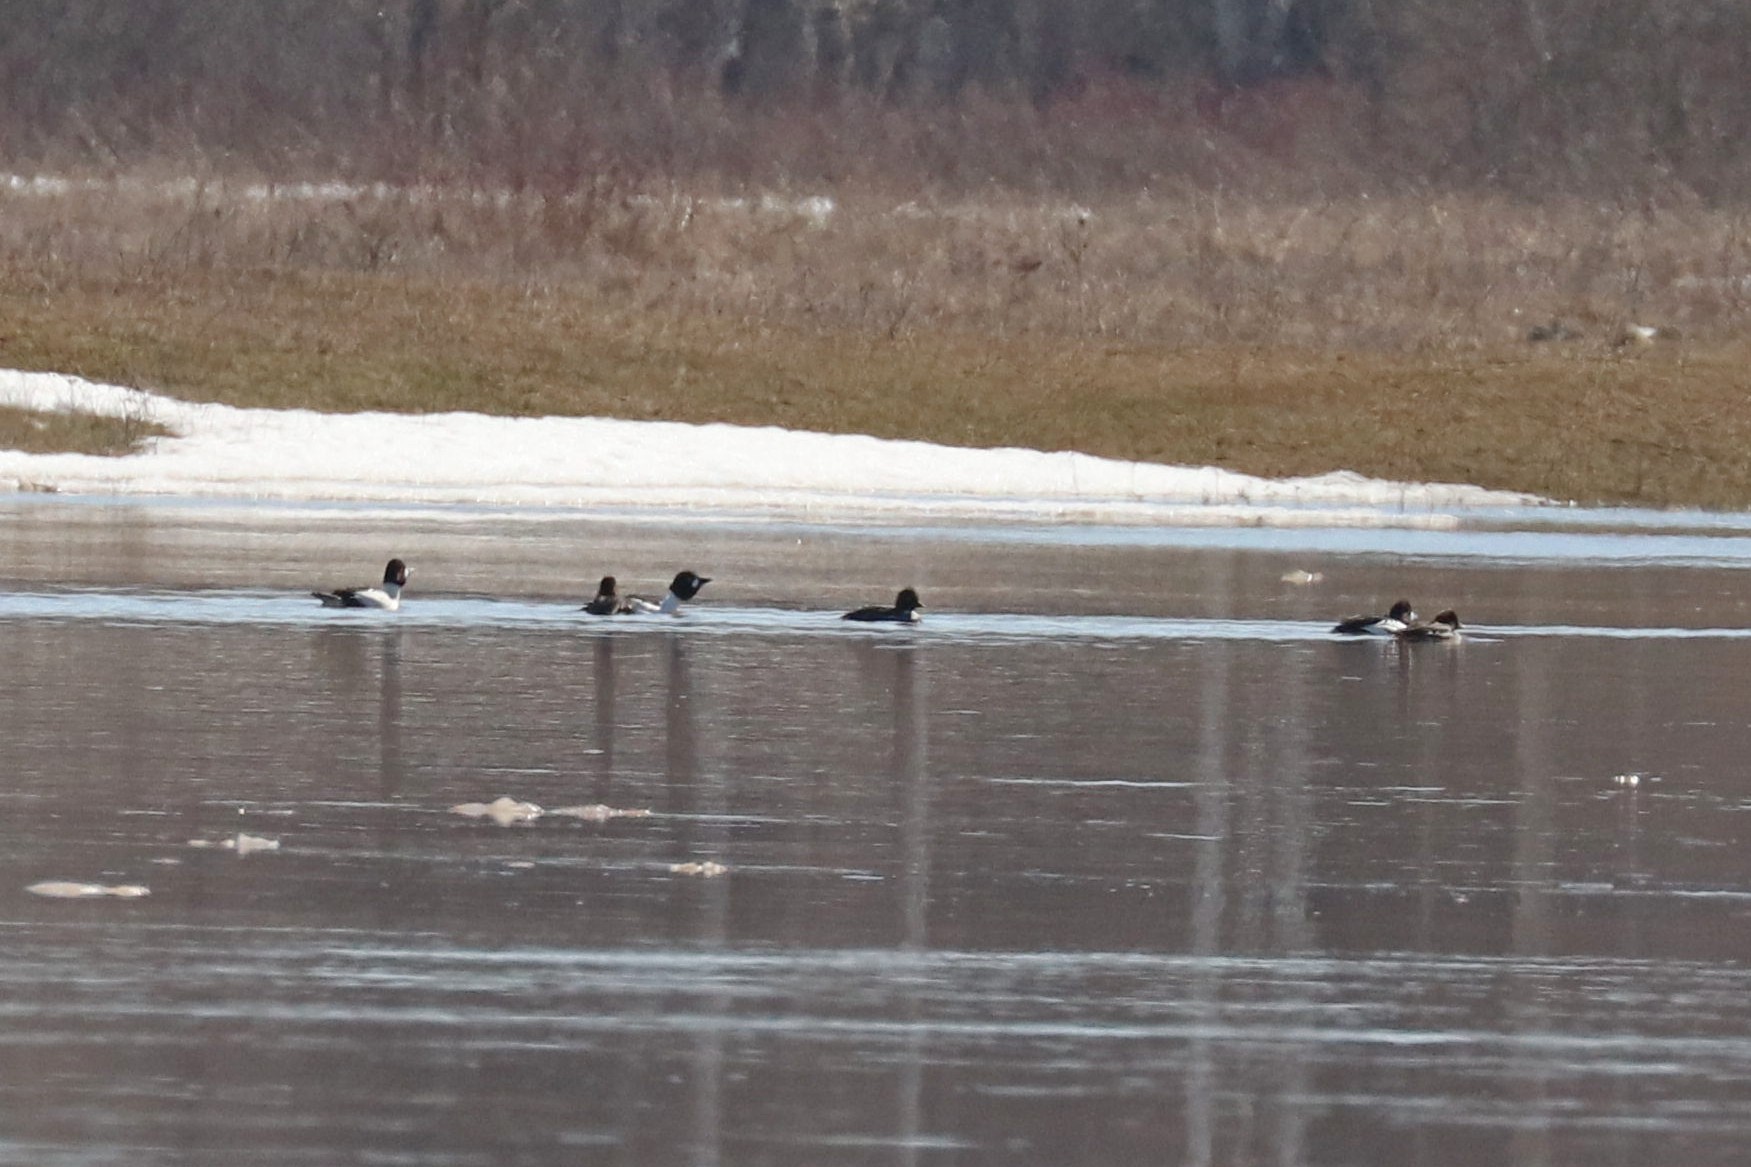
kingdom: Animalia
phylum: Chordata
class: Aves
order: Anseriformes
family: Anatidae
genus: Bucephala
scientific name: Bucephala clangula
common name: Common goldeneye
